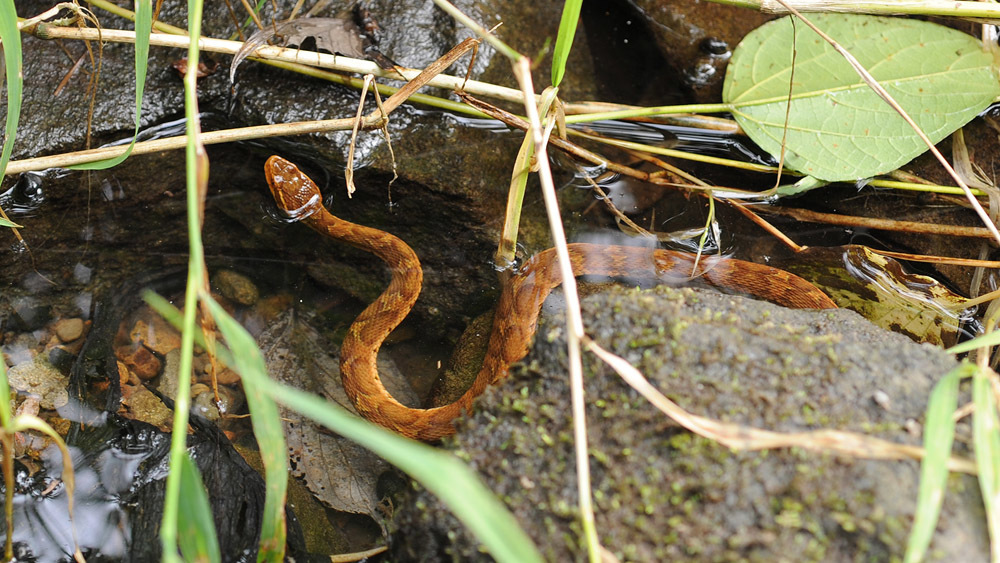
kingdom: Animalia
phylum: Chordata
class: Squamata
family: Viperidae
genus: Gloydius
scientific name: Gloydius ussuriensis
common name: Ussuri mamushi
